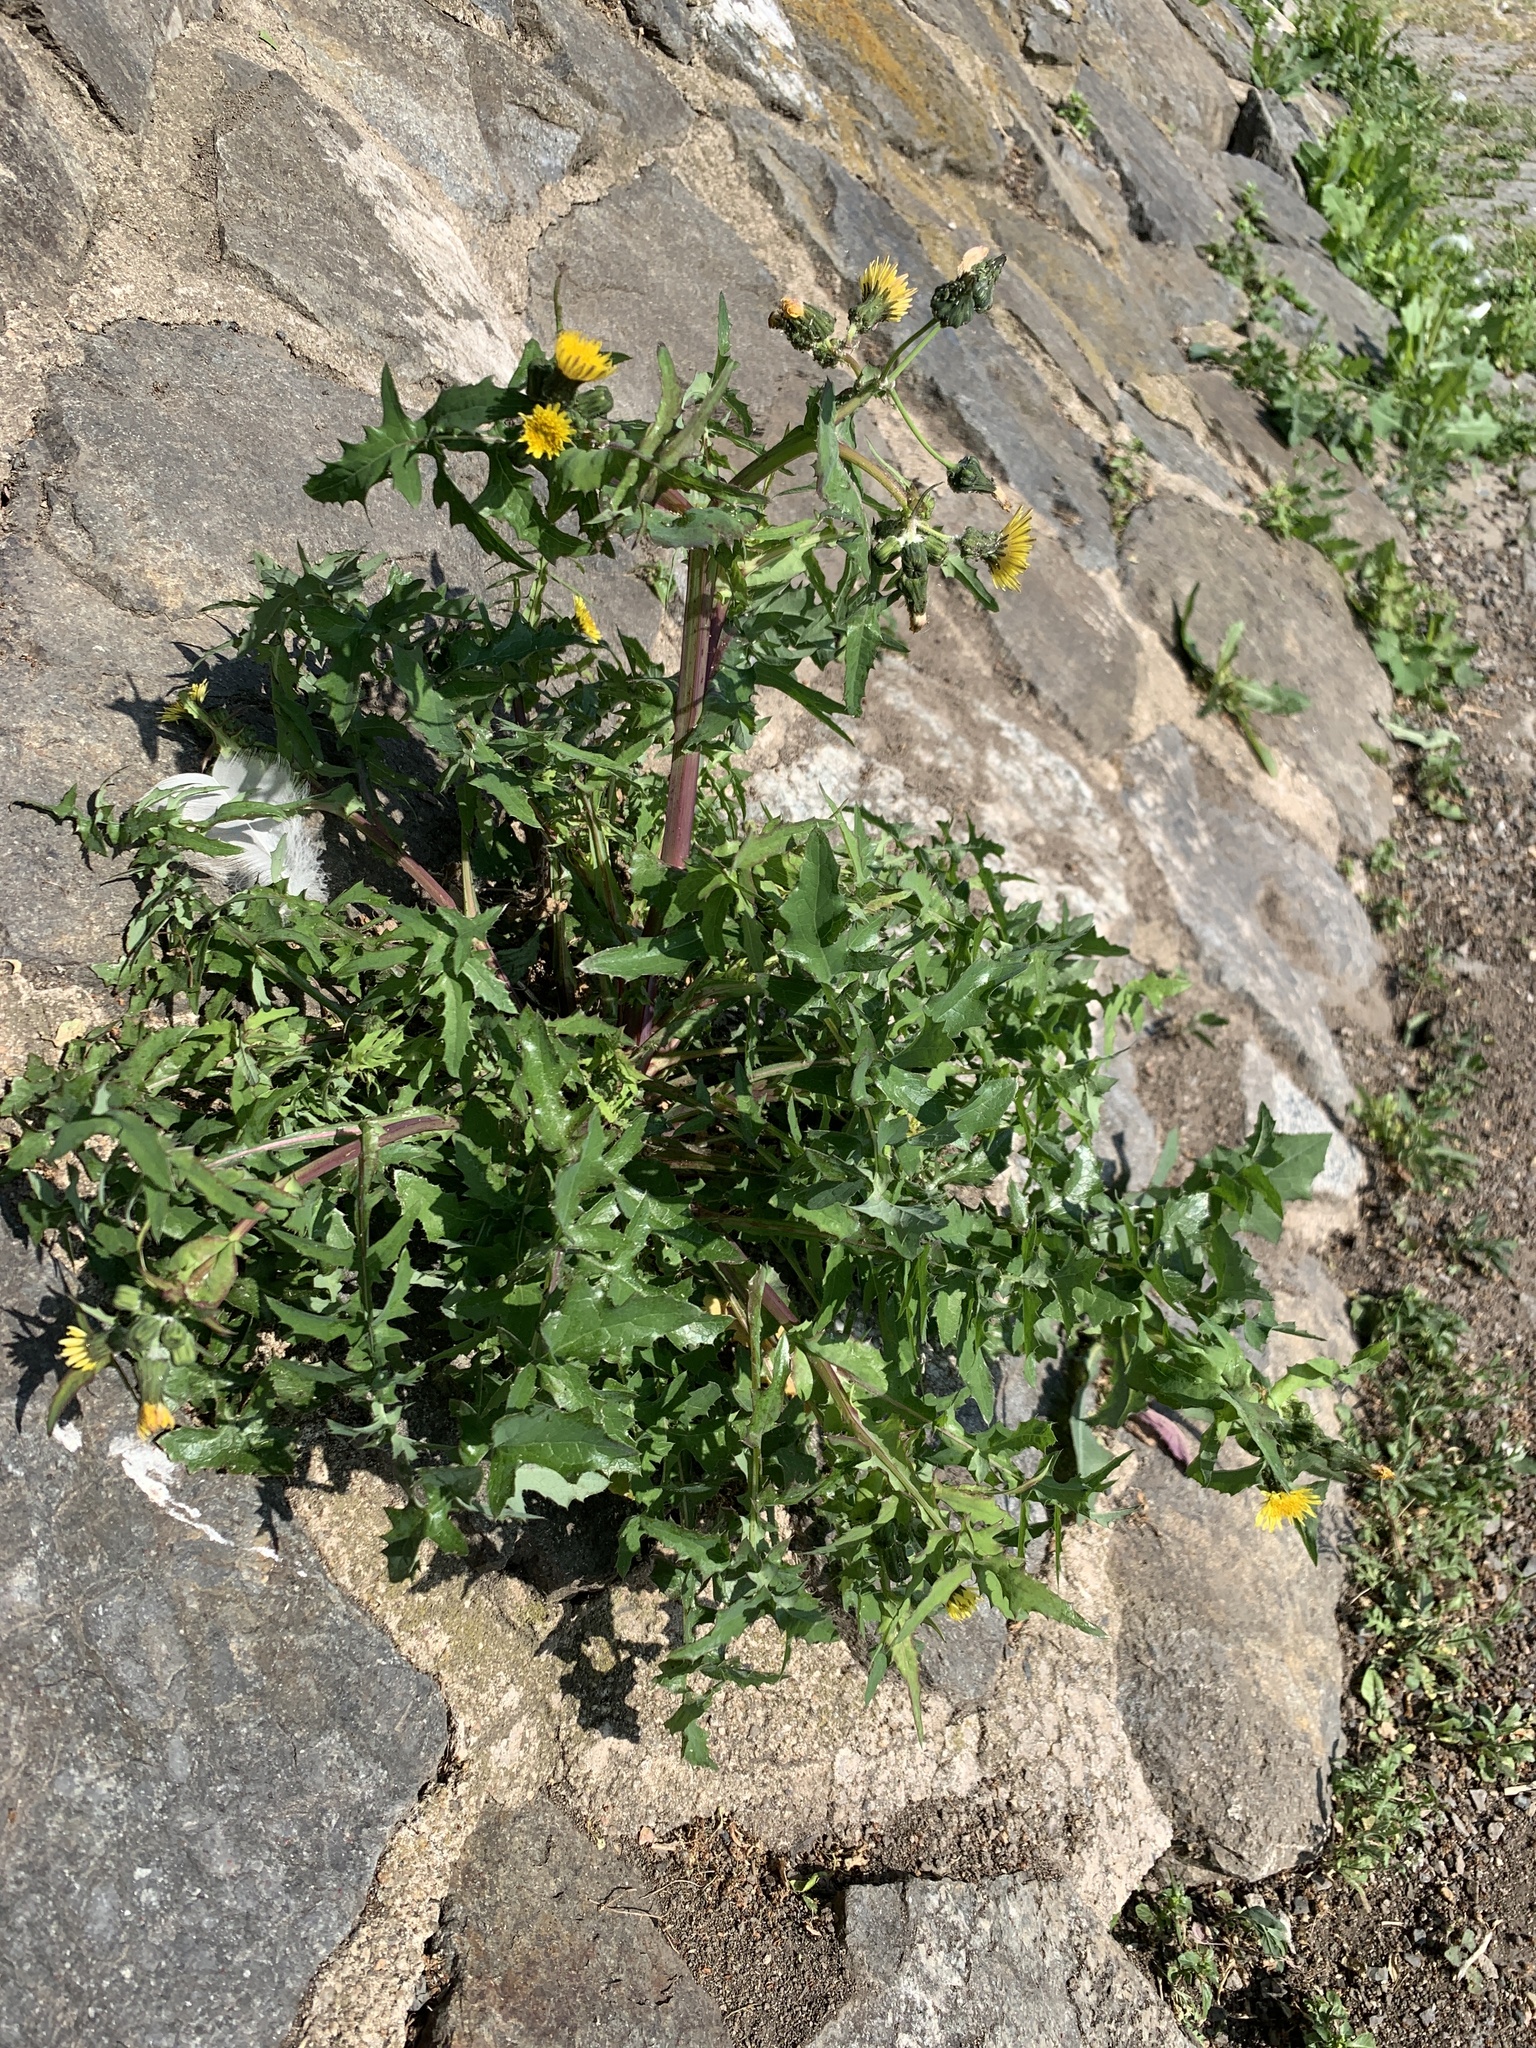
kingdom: Plantae
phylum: Tracheophyta
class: Magnoliopsida
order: Asterales
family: Asteraceae
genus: Sonchus
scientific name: Sonchus oleraceus
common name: Common sowthistle
